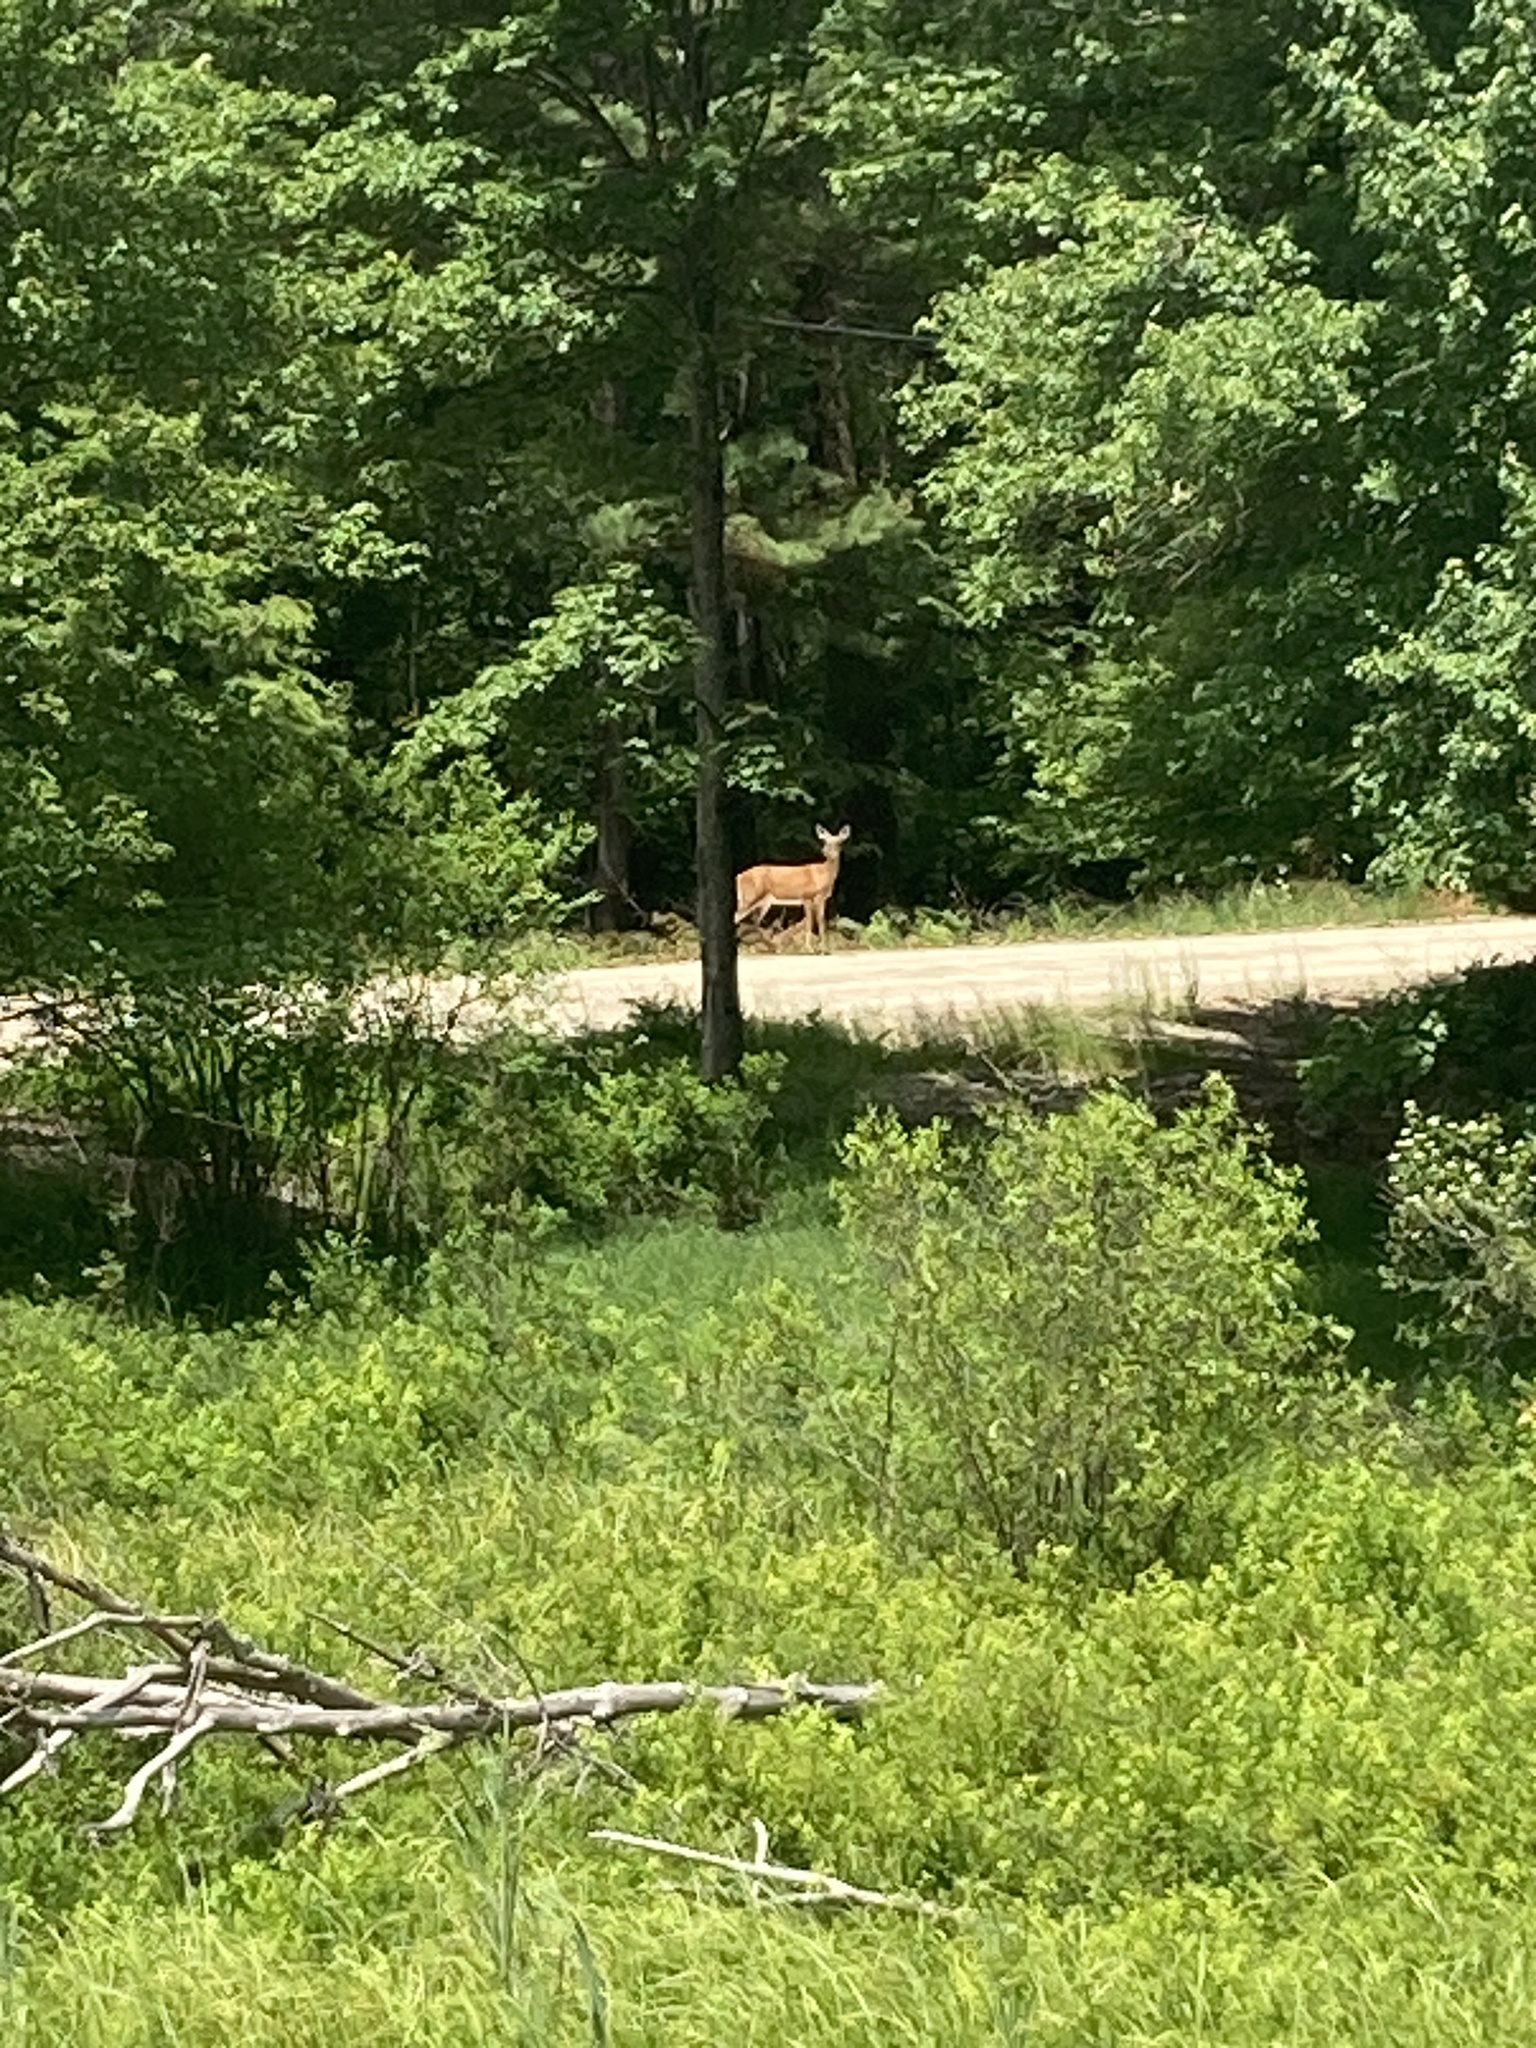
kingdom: Animalia
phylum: Chordata
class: Mammalia
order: Artiodactyla
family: Cervidae
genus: Odocoileus
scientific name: Odocoileus virginianus
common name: White-tailed deer
